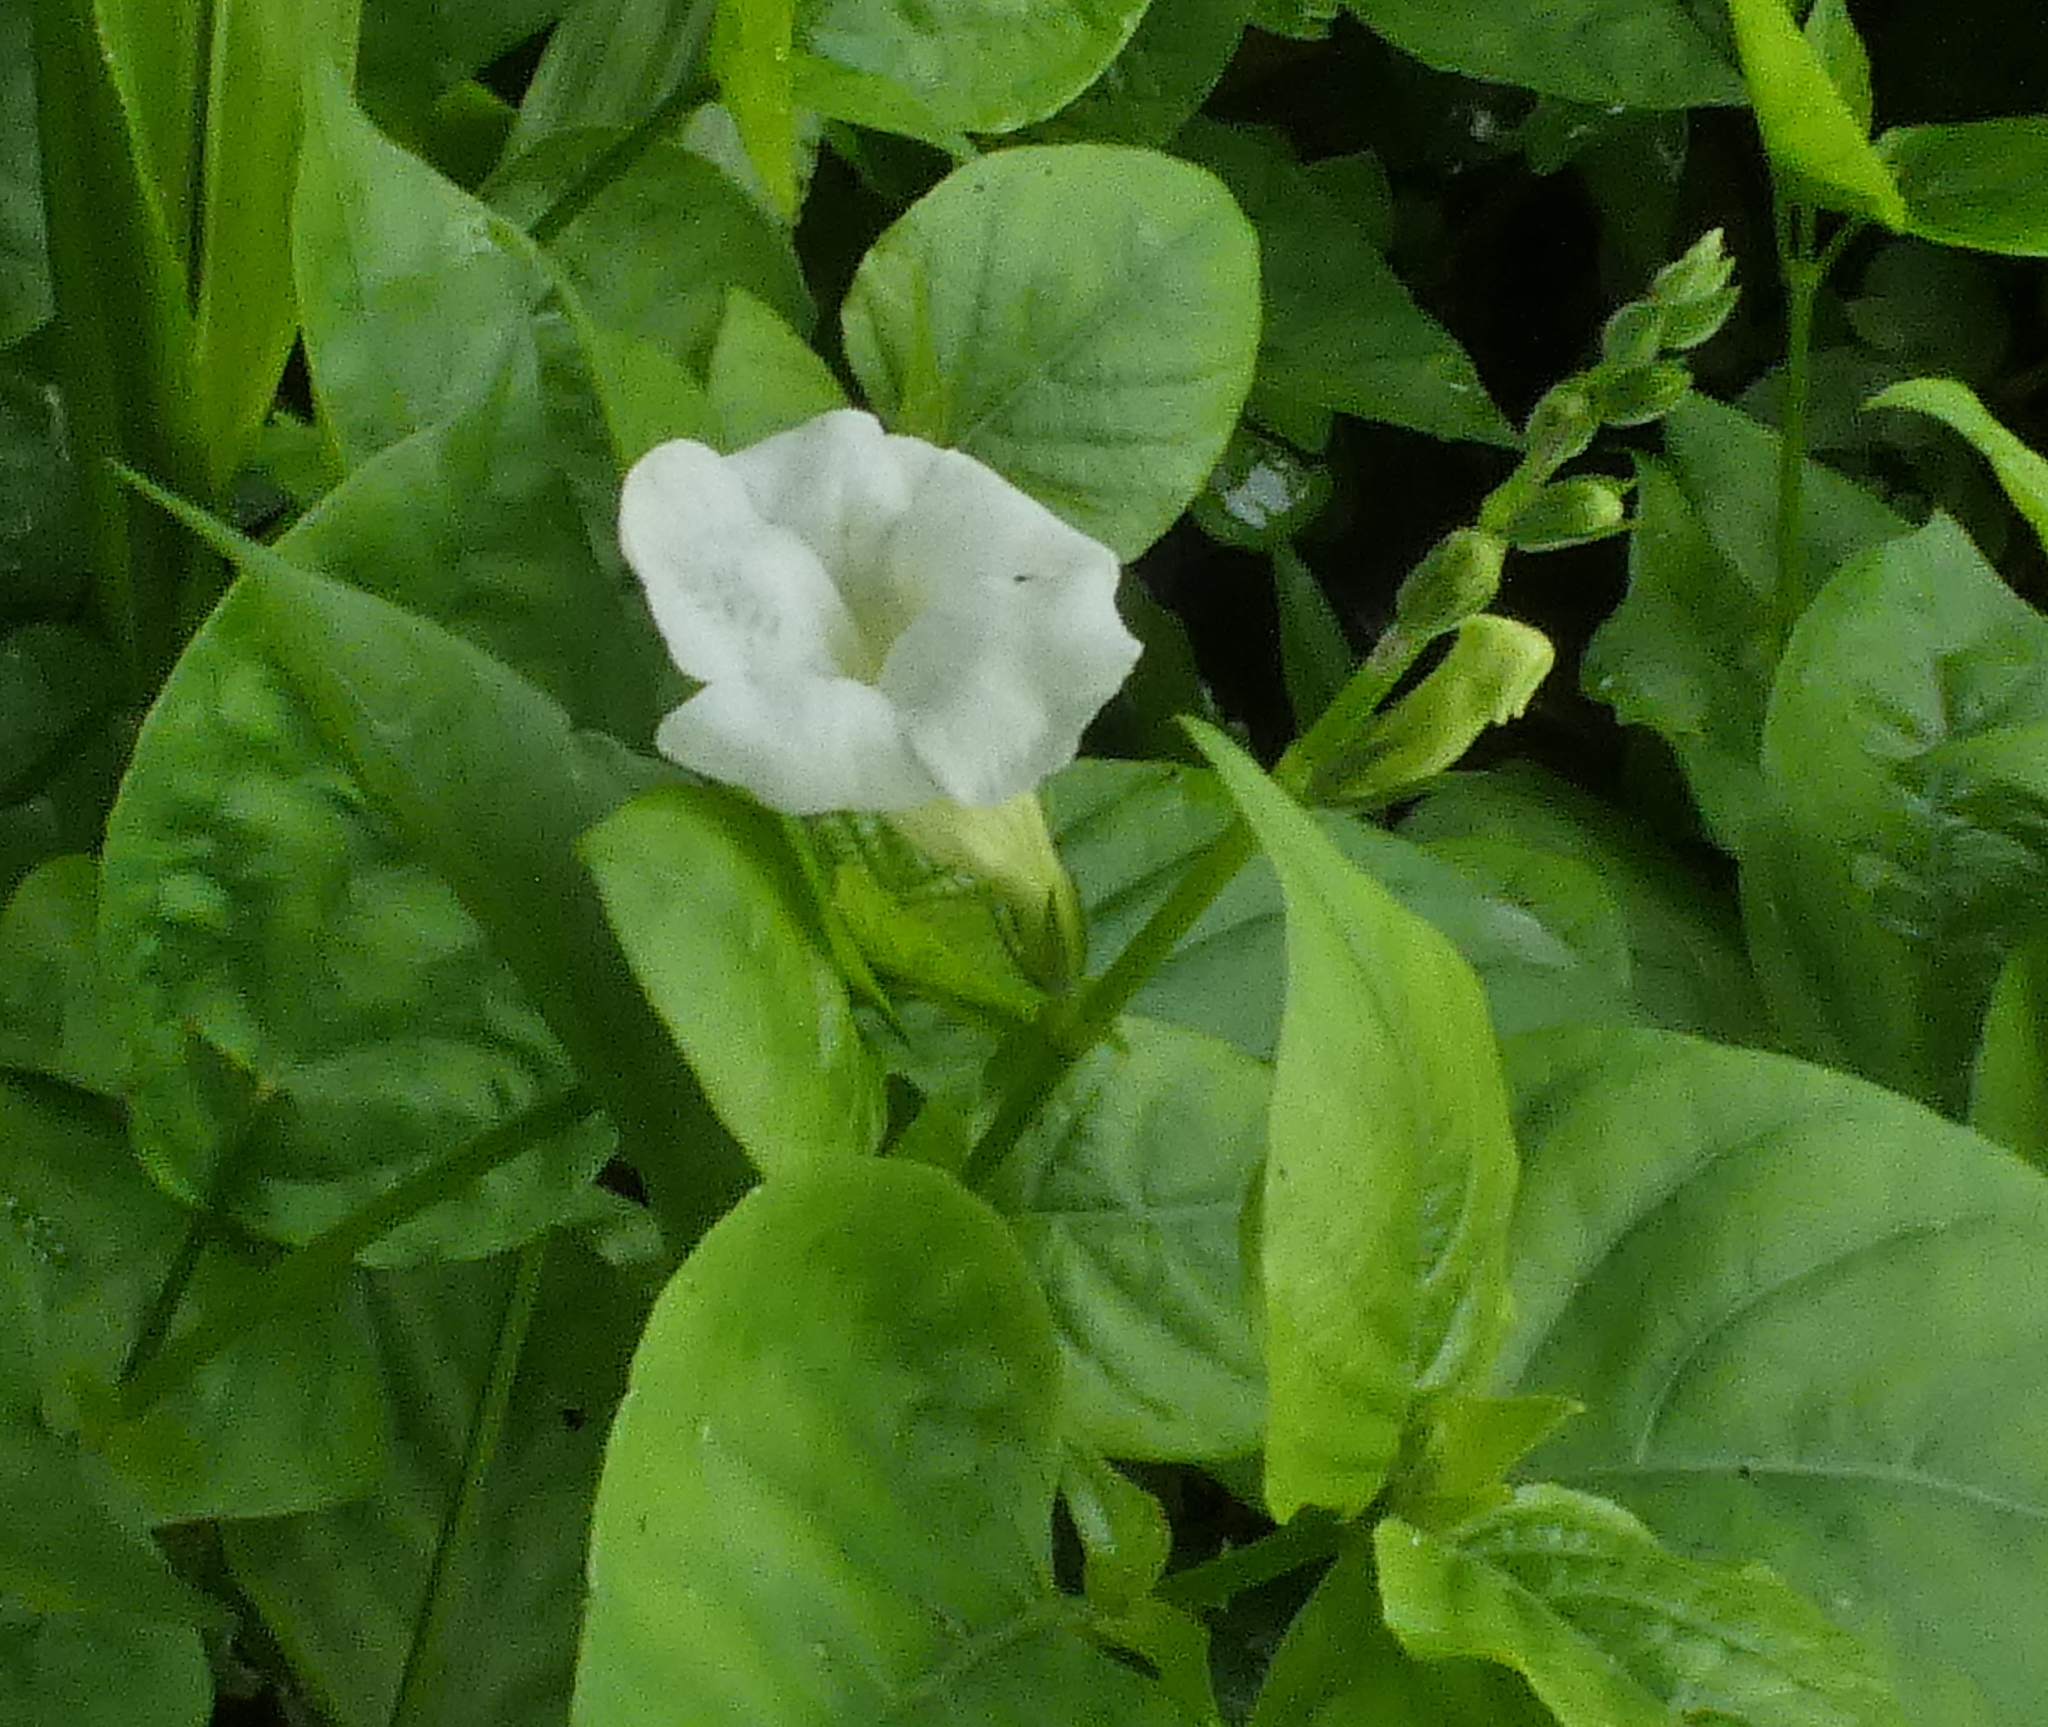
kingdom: Plantae
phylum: Tracheophyta
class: Magnoliopsida
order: Lamiales
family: Acanthaceae
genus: Asystasia
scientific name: Asystasia gangetica
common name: Chinese violet
